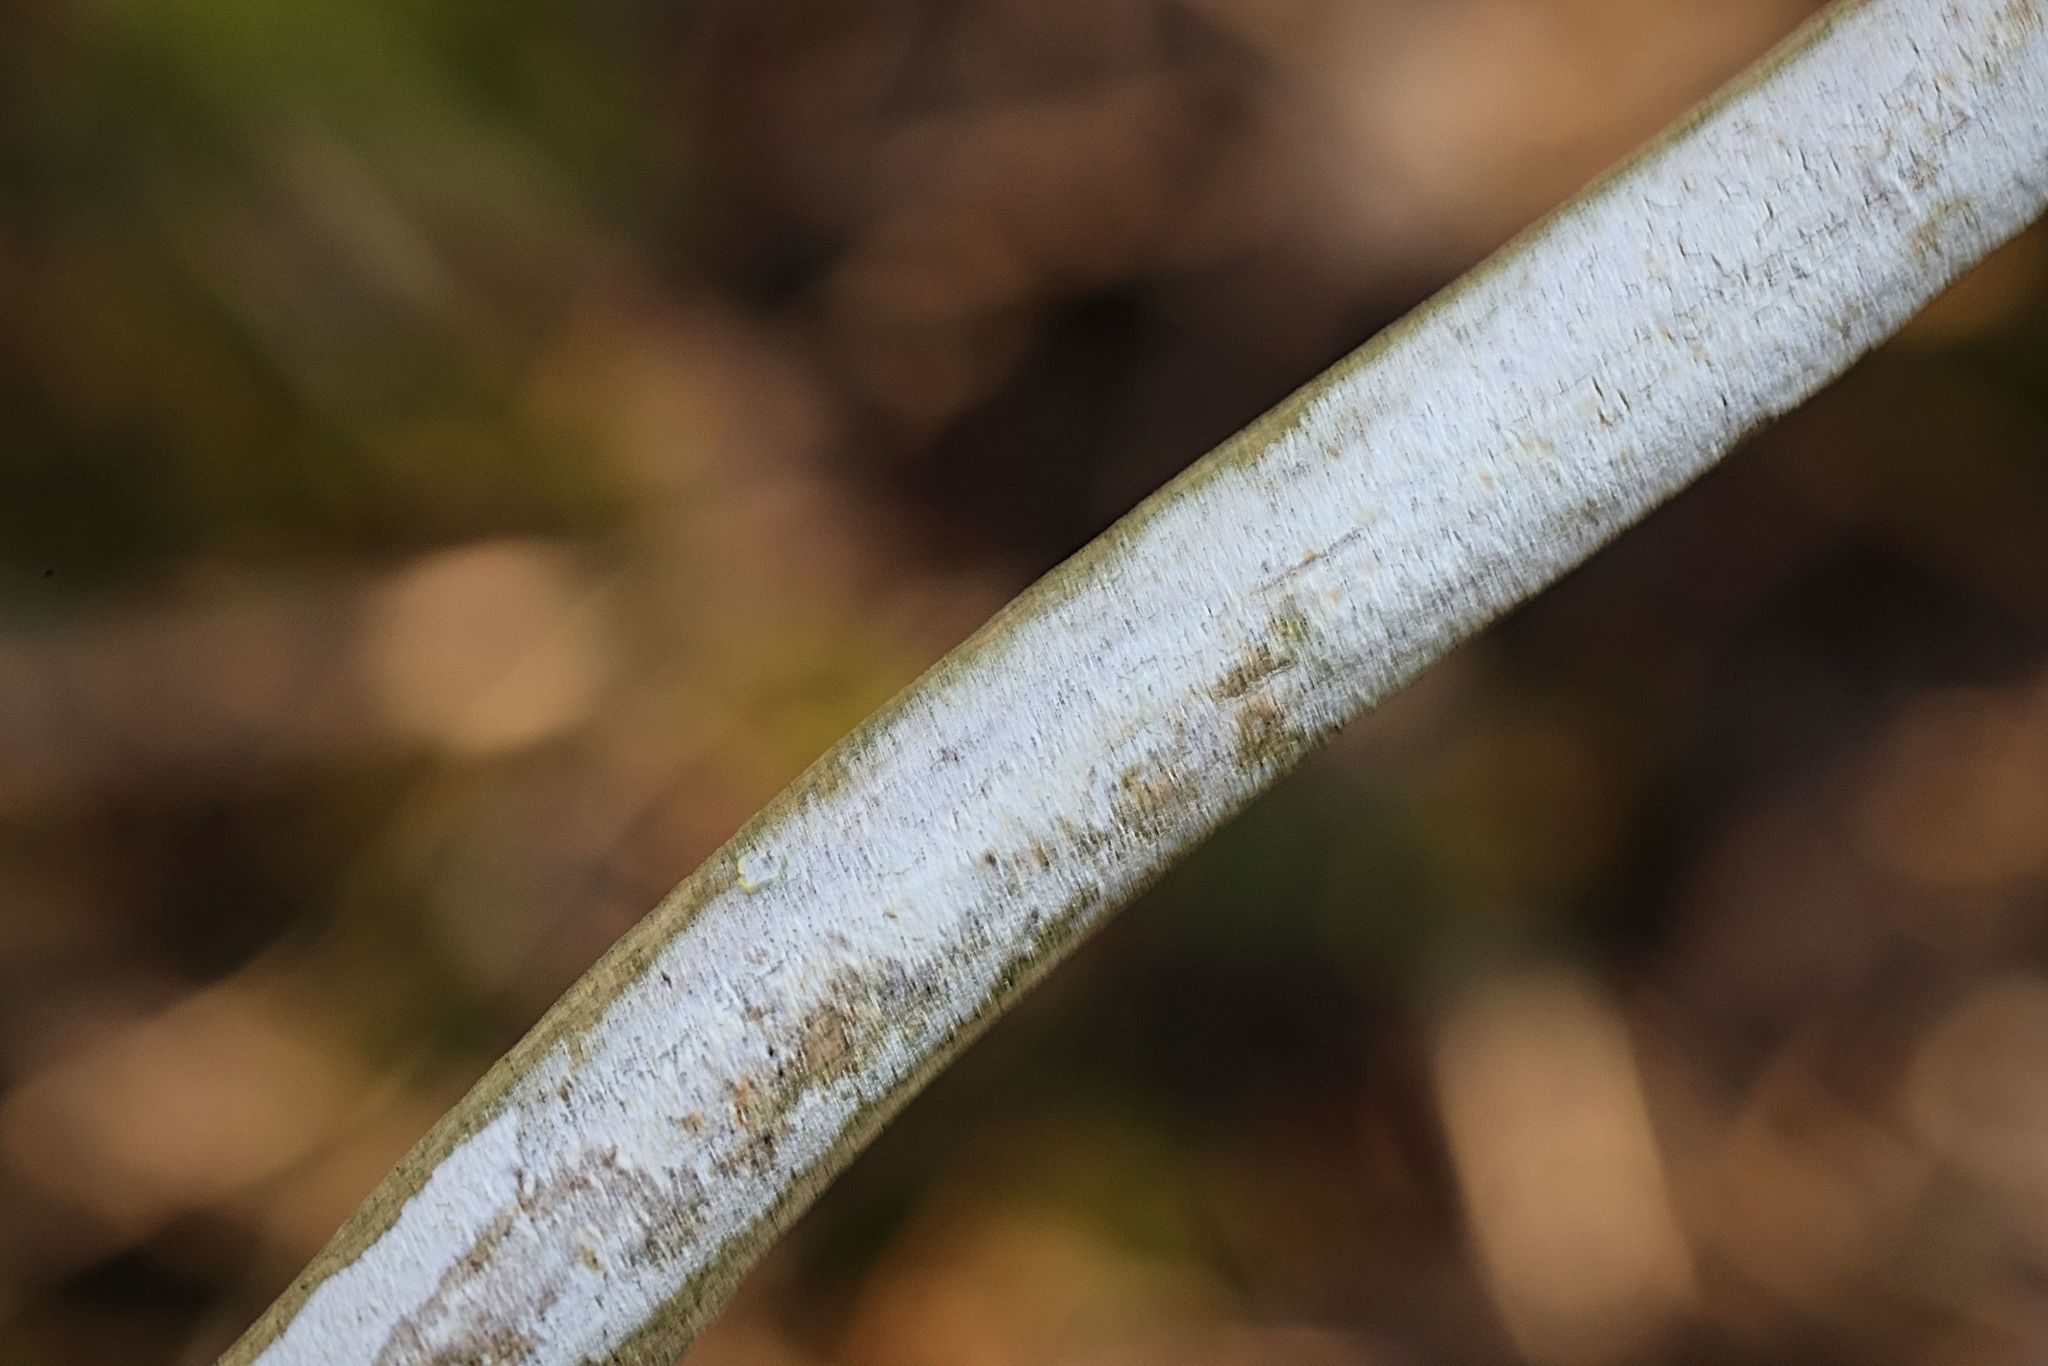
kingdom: Fungi
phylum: Basidiomycota
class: Agaricomycetes
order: Corticiales
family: Corticiaceae
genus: Lyomyces
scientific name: Lyomyces sambuci
